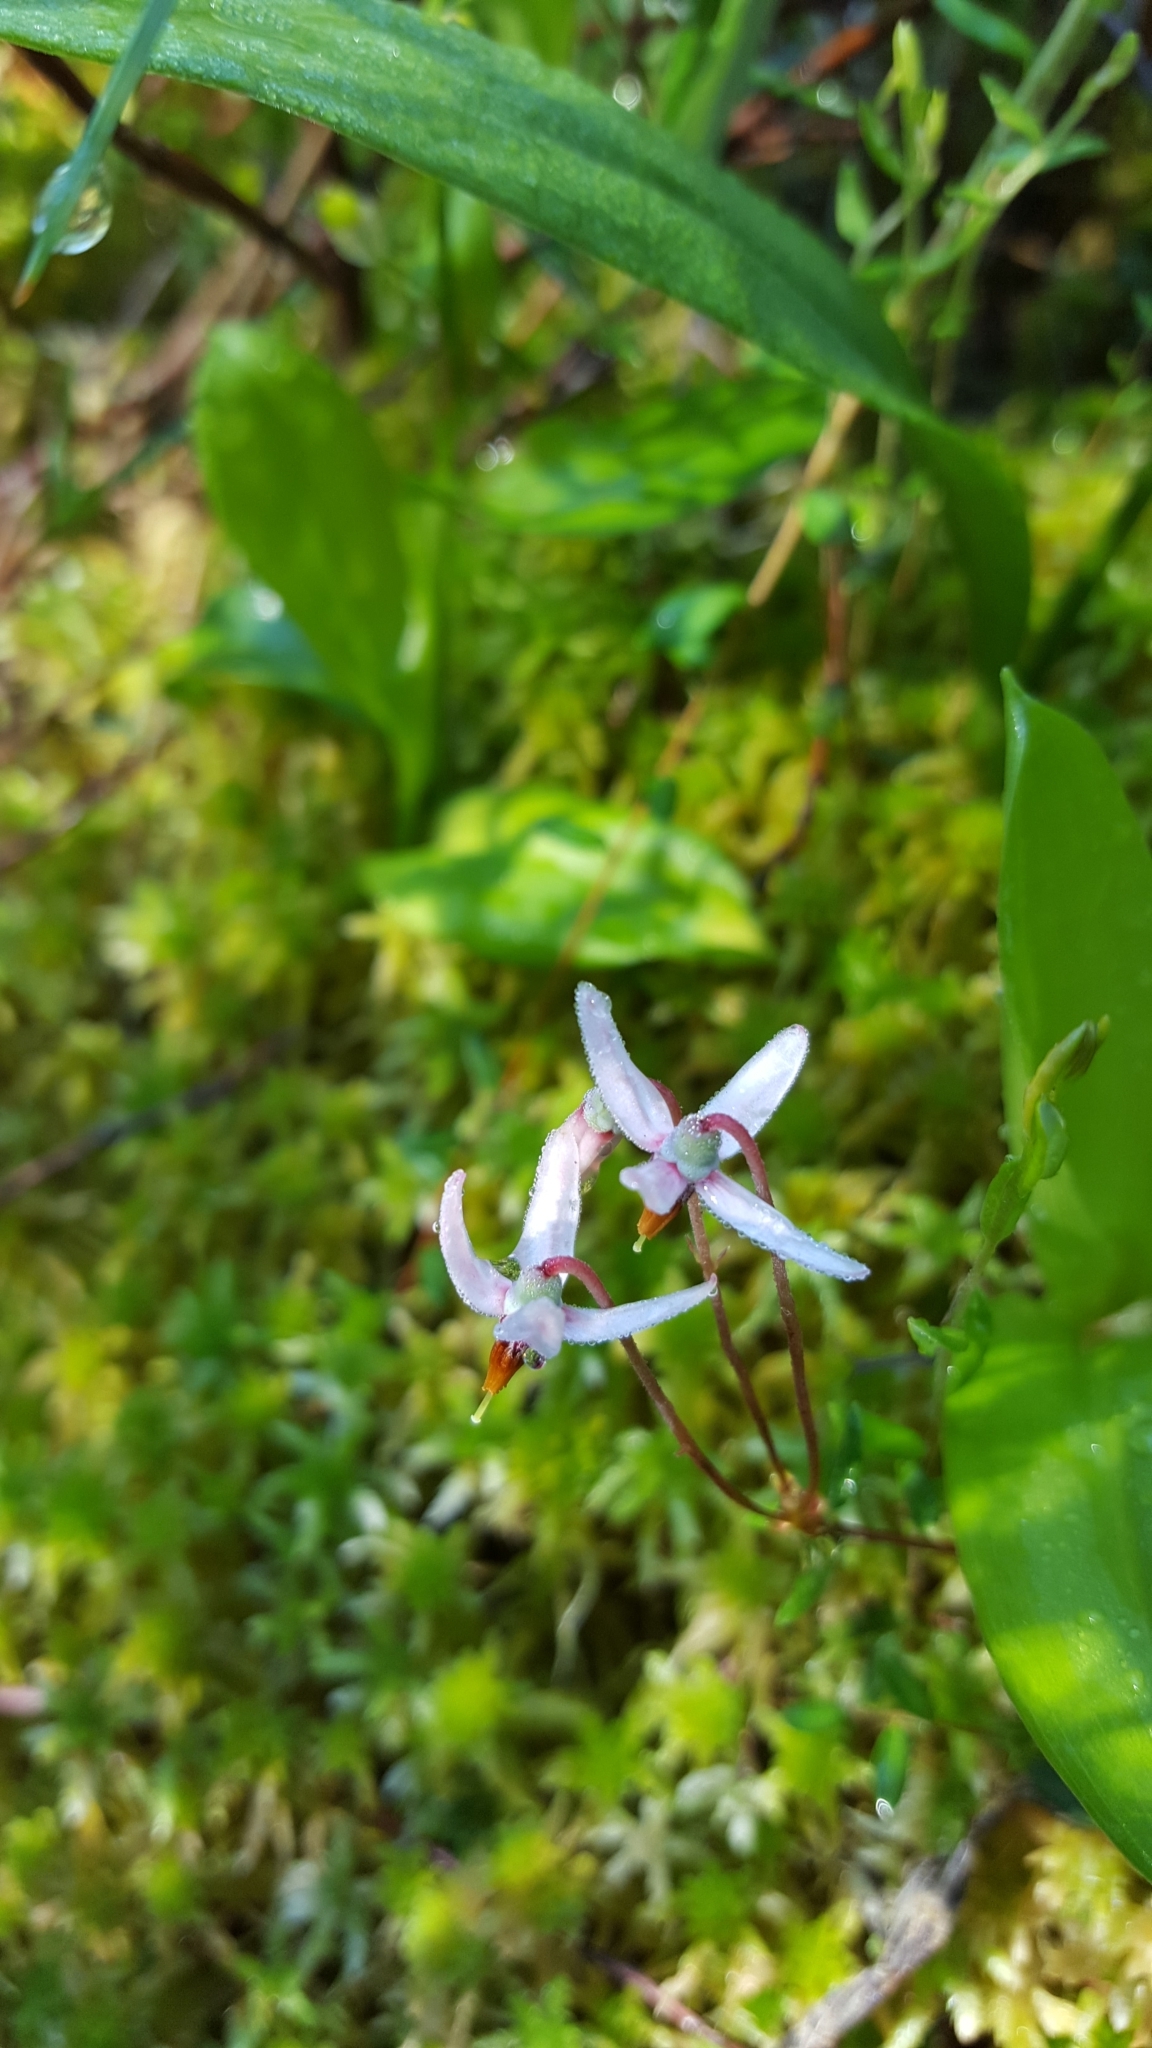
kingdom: Plantae
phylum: Tracheophyta
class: Magnoliopsida
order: Ericales
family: Ericaceae
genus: Vaccinium
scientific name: Vaccinium oxycoccos
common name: Cranberry
